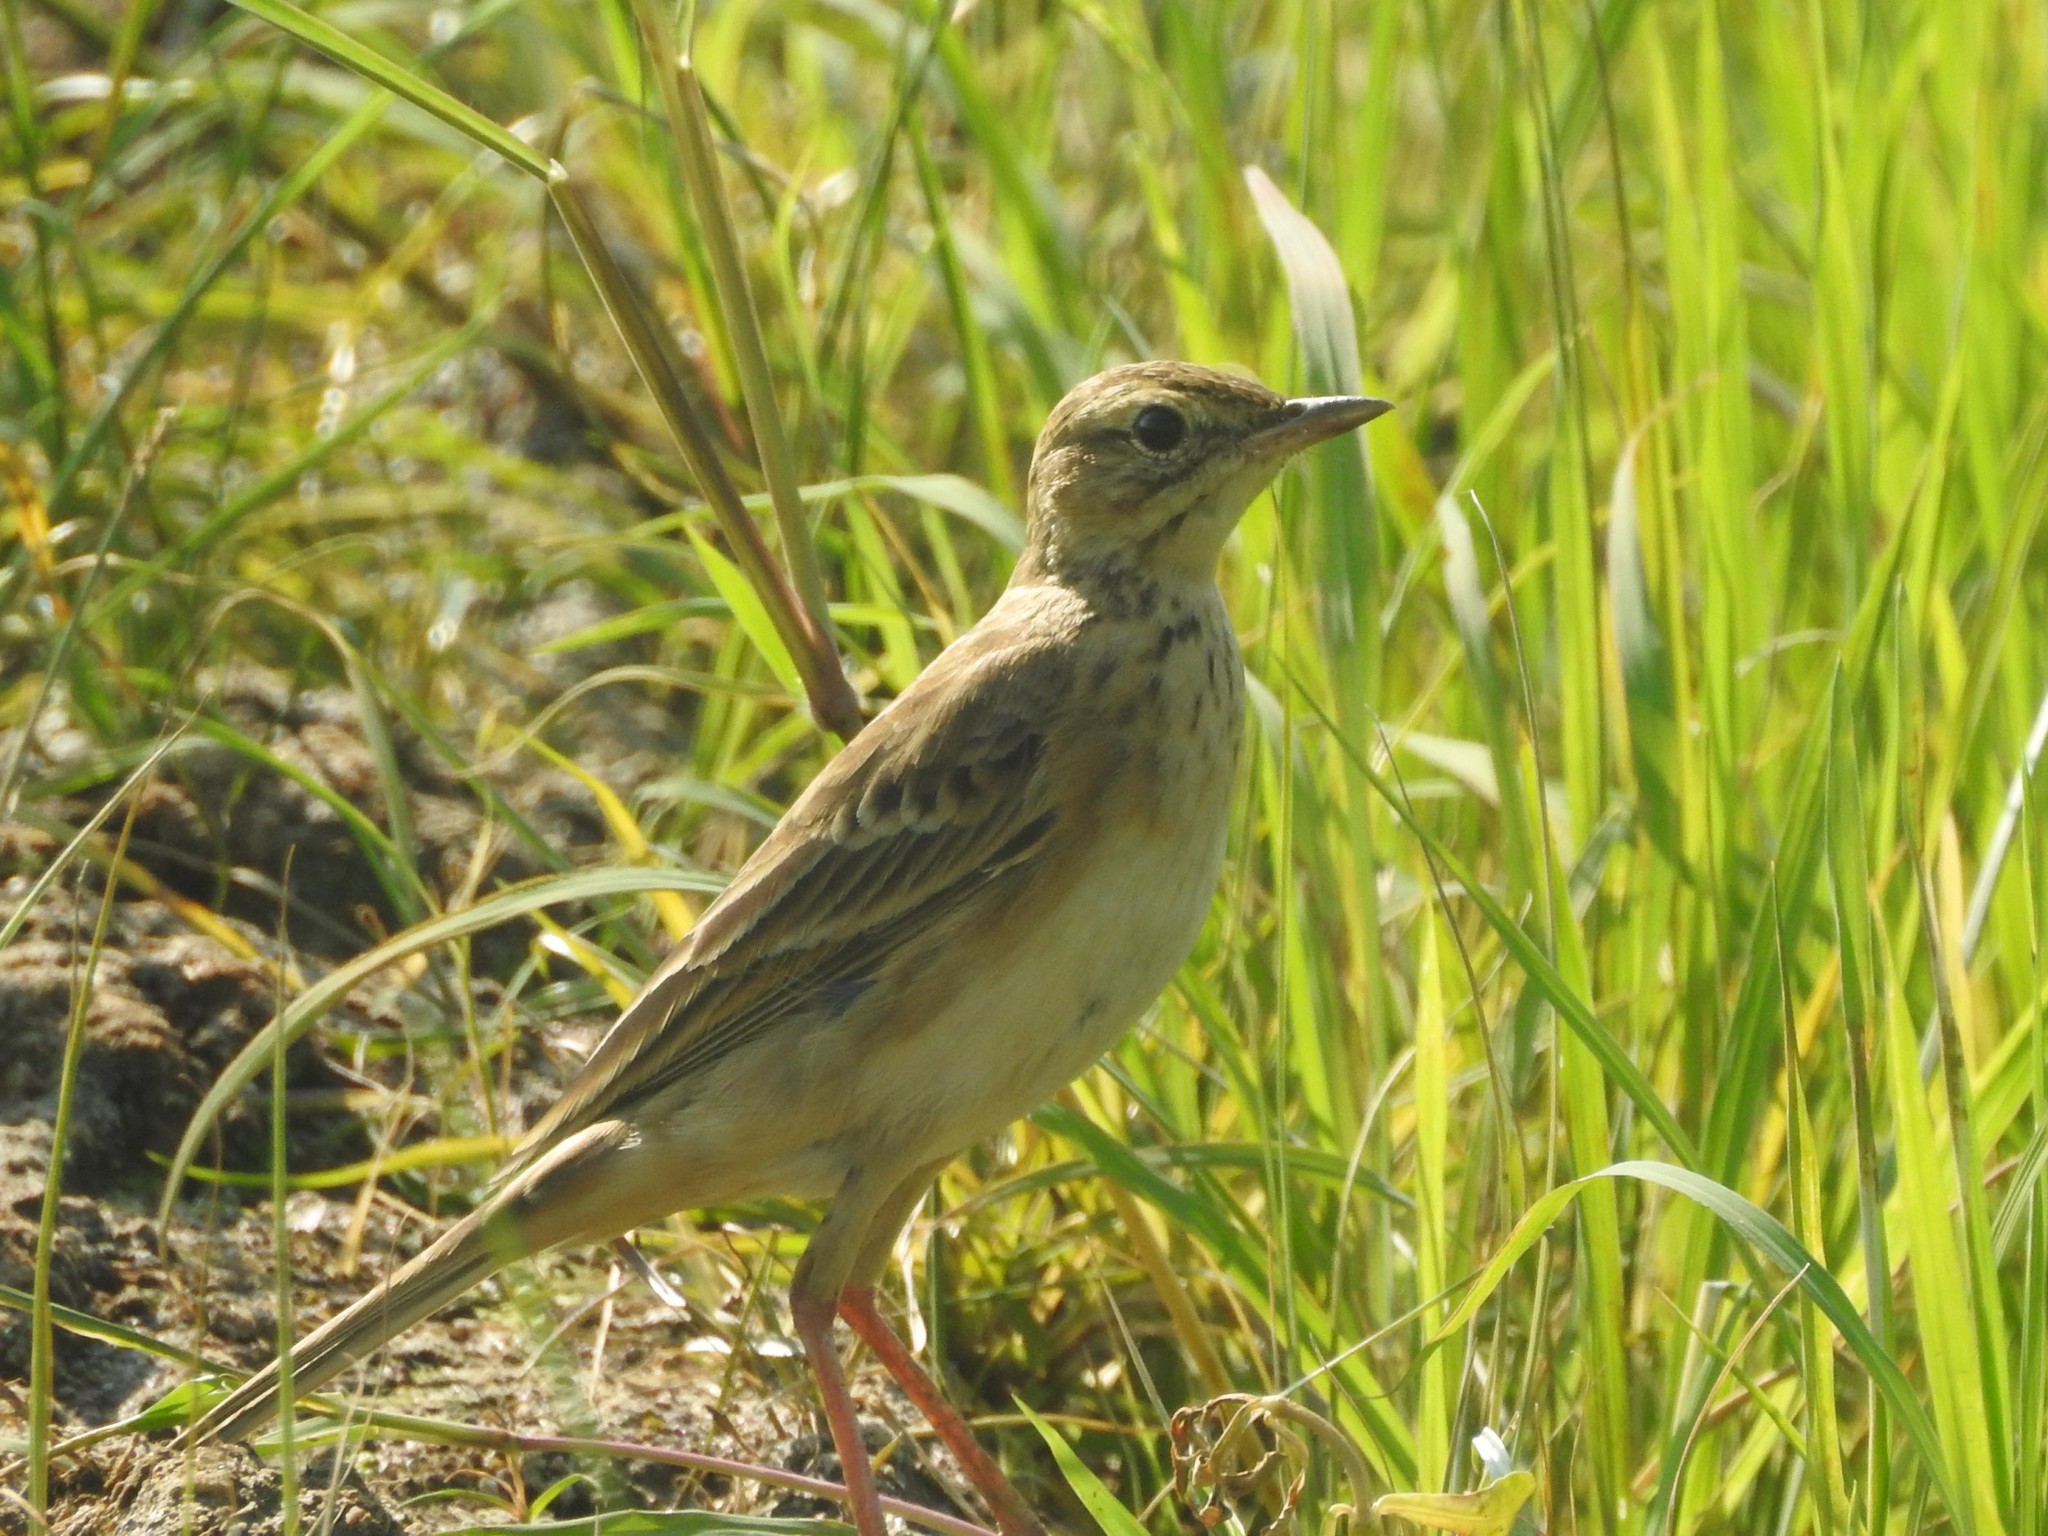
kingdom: Animalia
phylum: Chordata
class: Aves
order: Passeriformes
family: Motacillidae
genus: Anthus
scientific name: Anthus rufulus
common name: Paddyfield pipit
